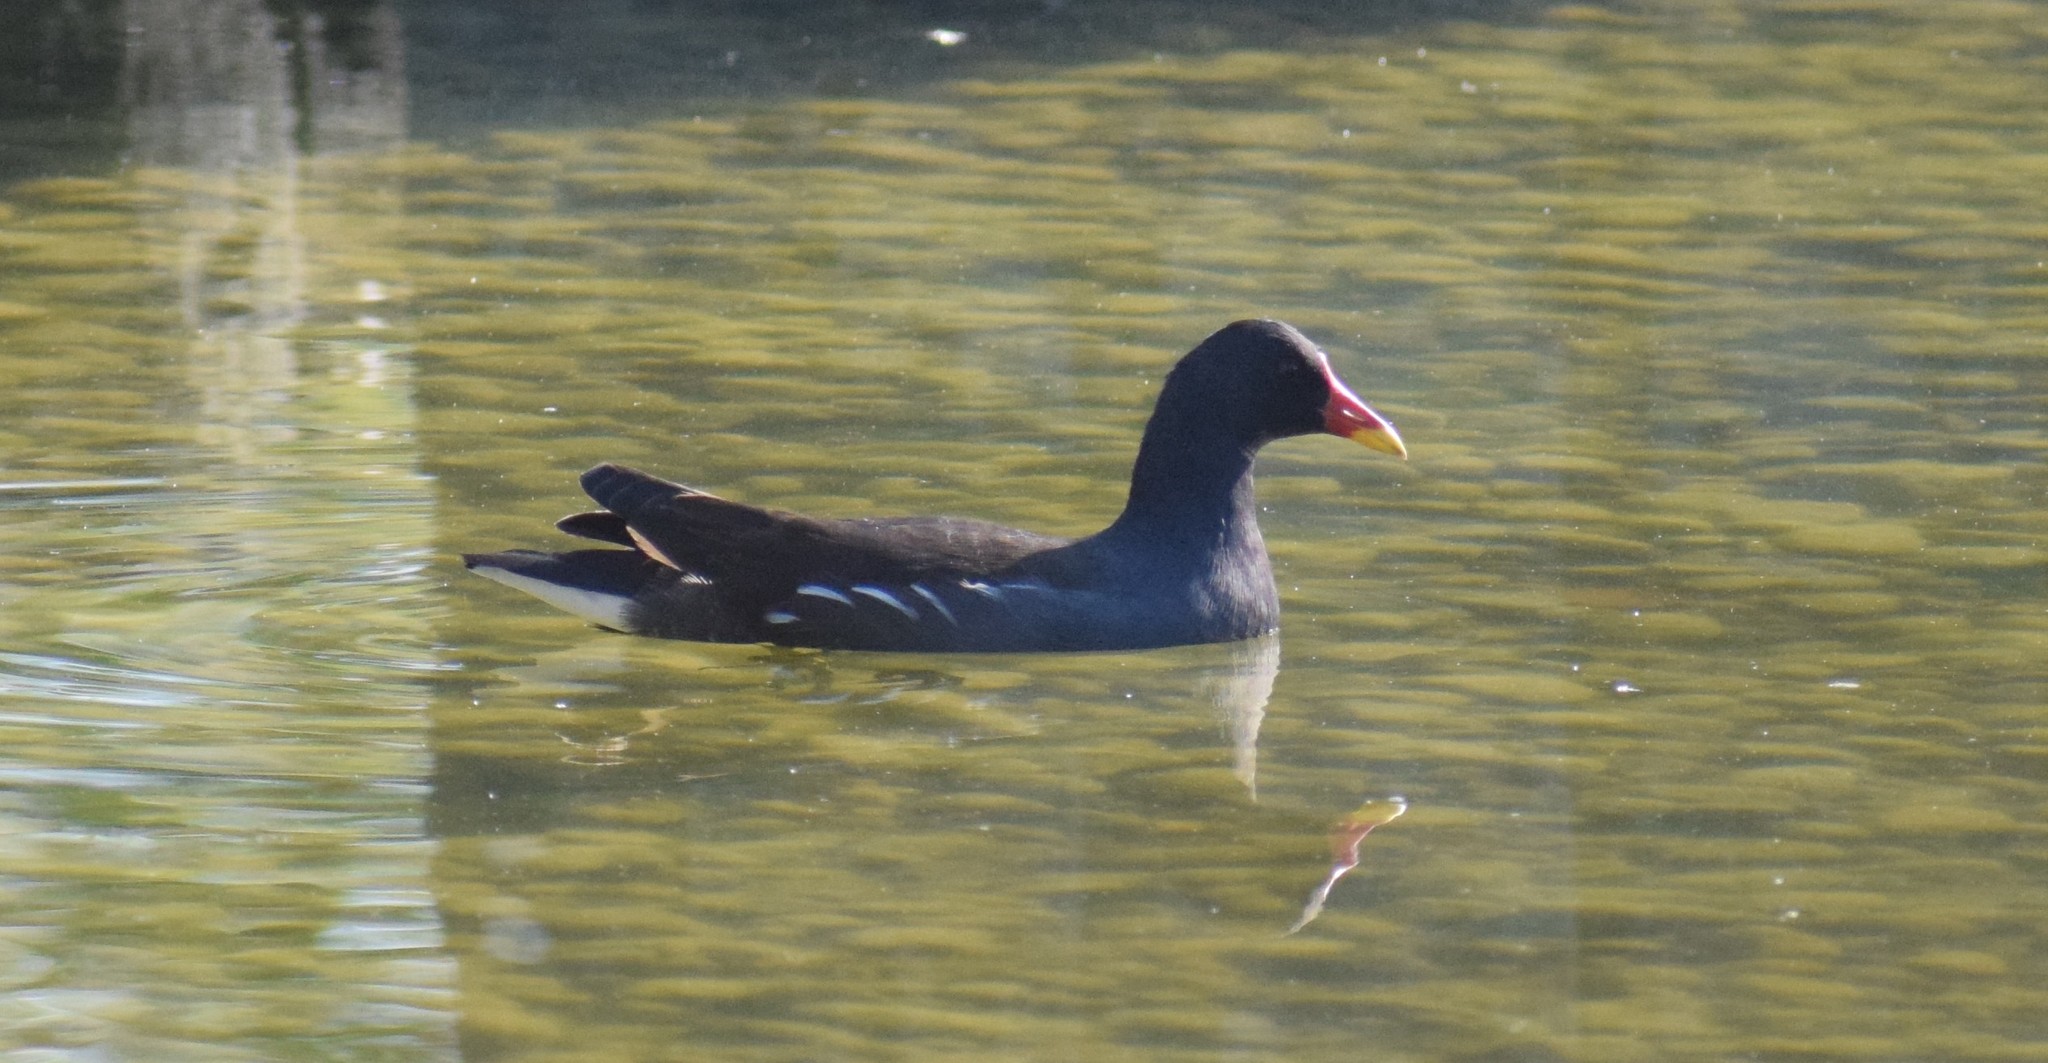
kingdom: Animalia
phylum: Chordata
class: Aves
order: Gruiformes
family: Rallidae
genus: Gallinula
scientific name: Gallinula chloropus
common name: Common moorhen
